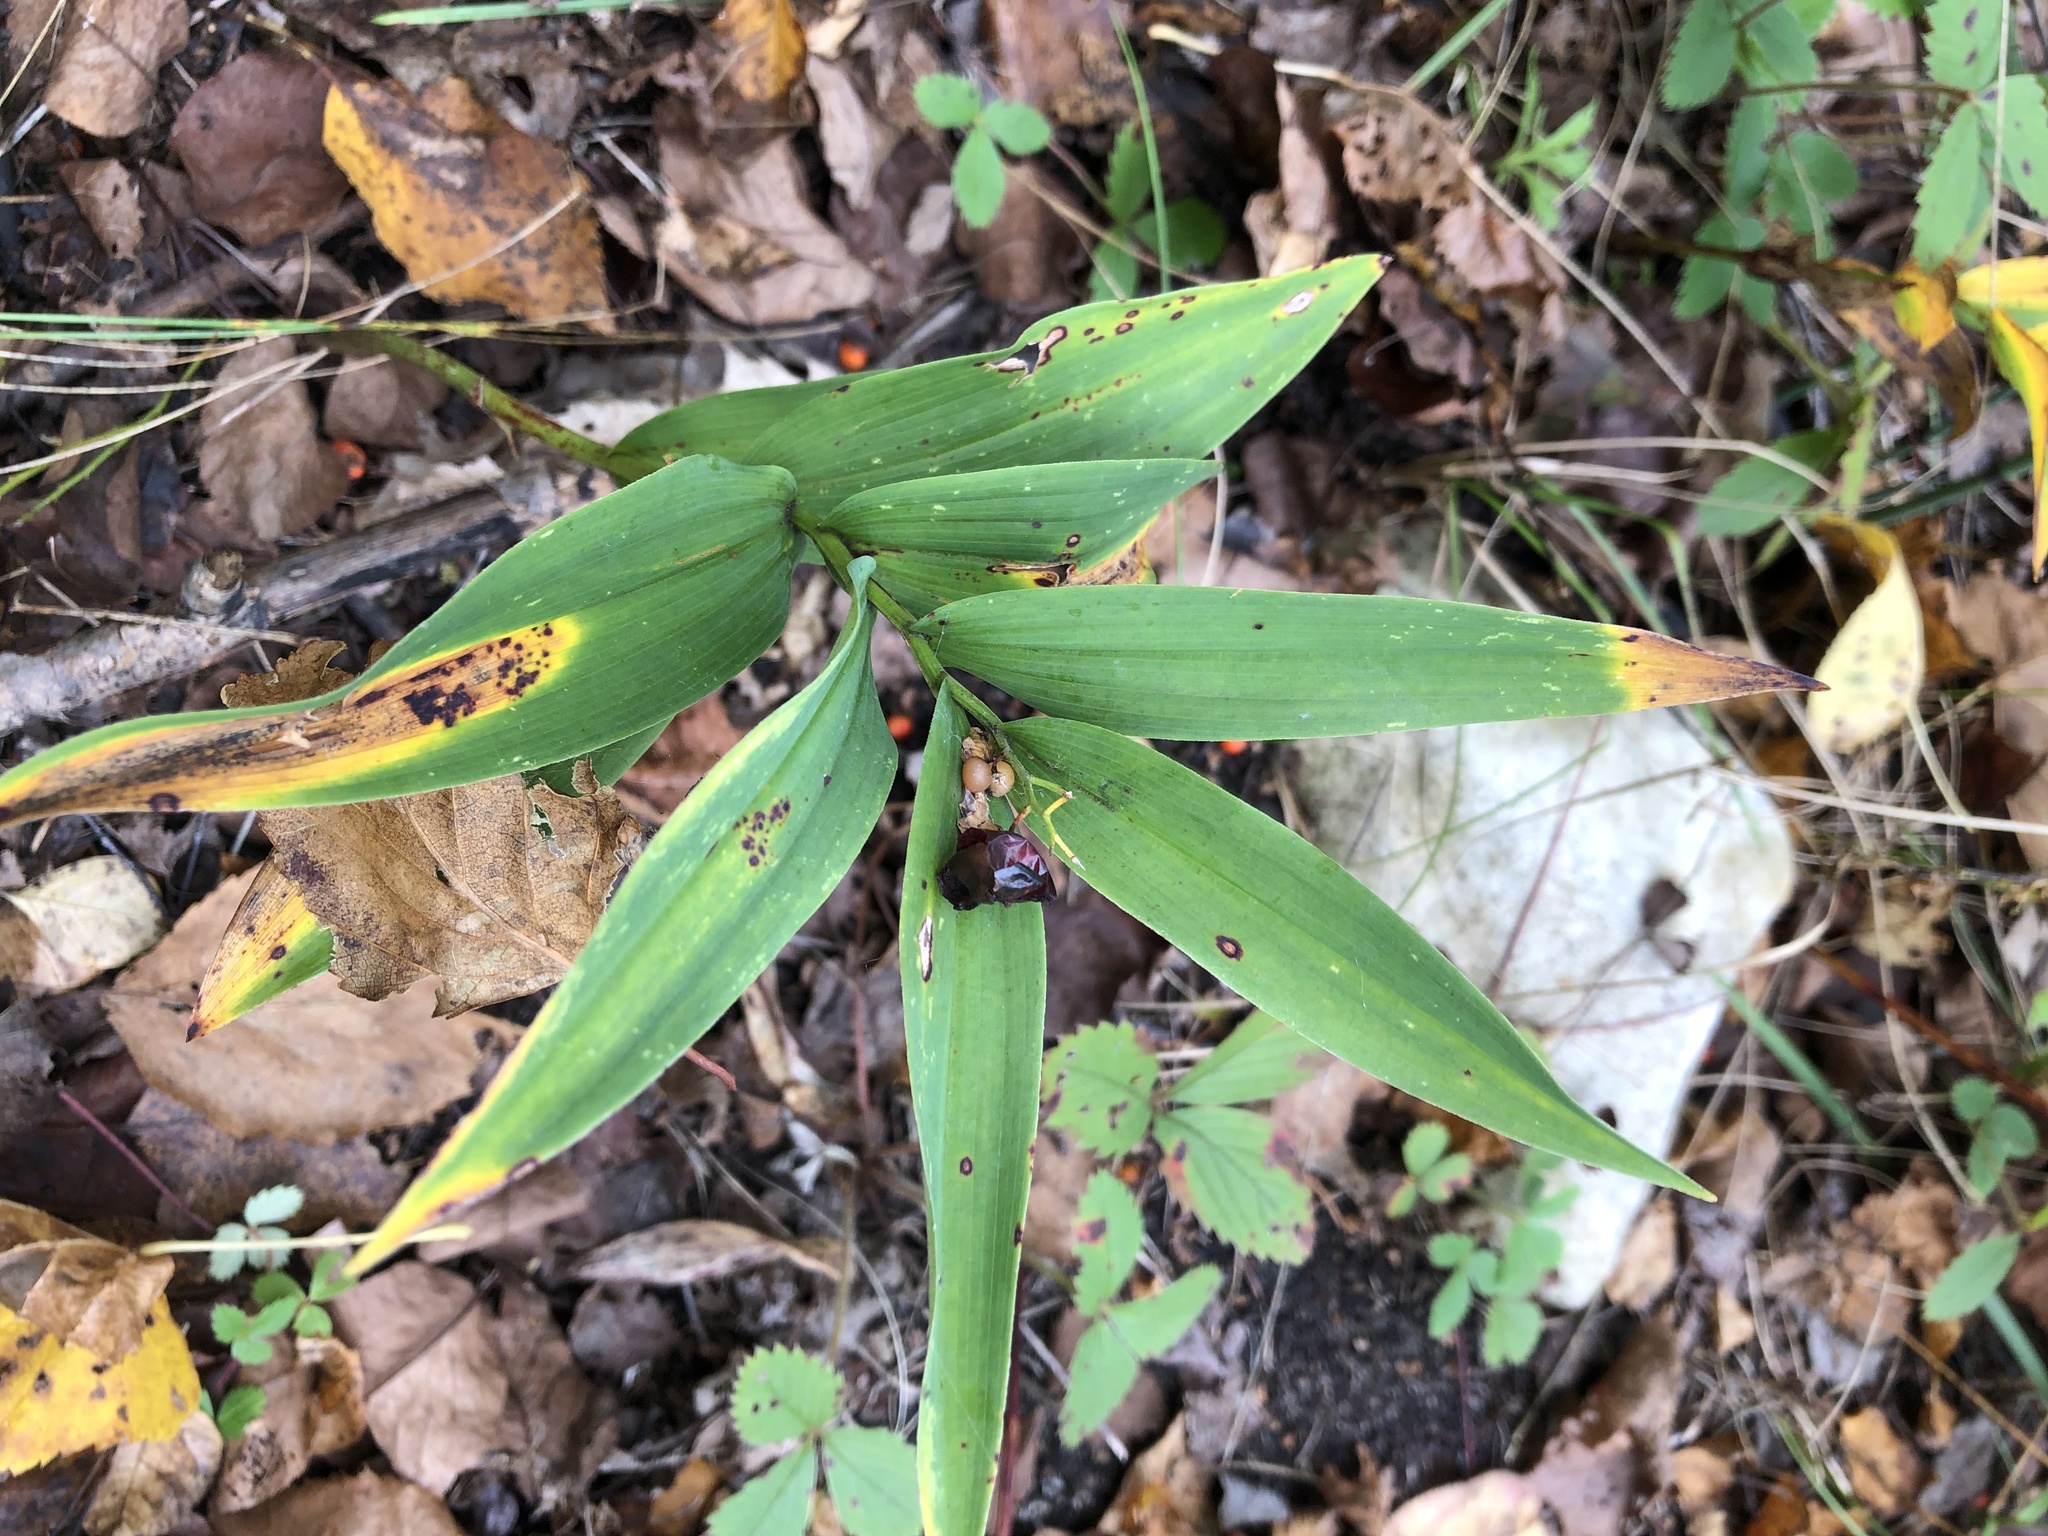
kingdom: Plantae
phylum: Tracheophyta
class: Liliopsida
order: Asparagales
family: Asparagaceae
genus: Maianthemum
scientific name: Maianthemum stellatum
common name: Little false solomon's seal
